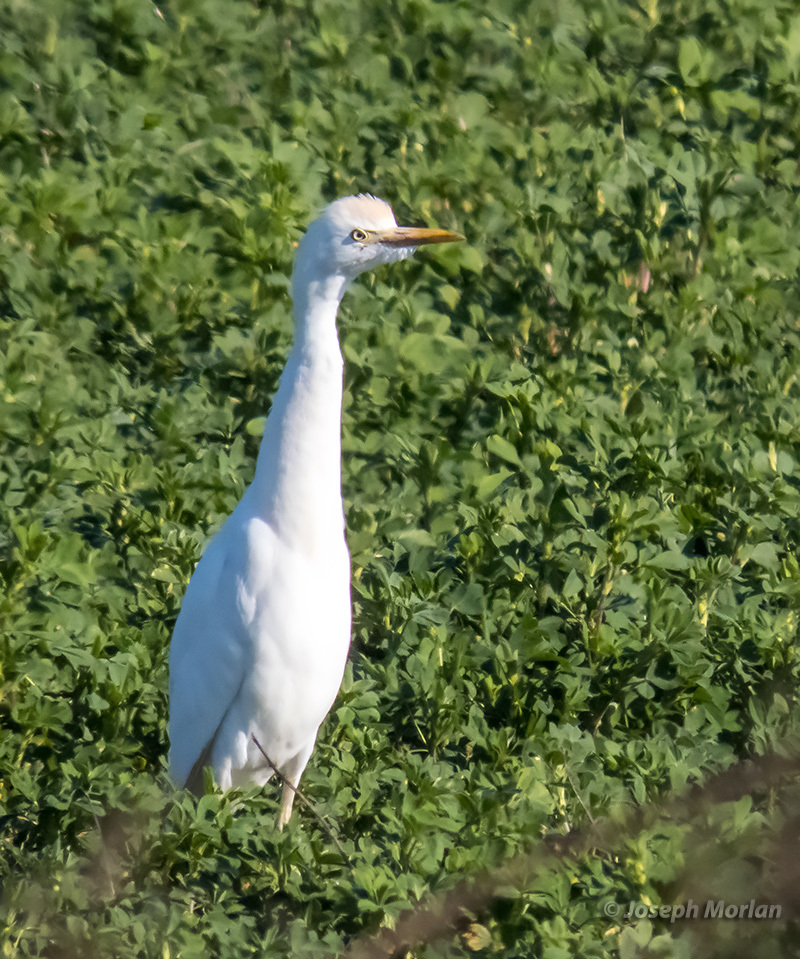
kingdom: Animalia
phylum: Chordata
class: Aves
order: Pelecaniformes
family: Ardeidae
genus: Bubulcus
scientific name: Bubulcus ibis
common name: Cattle egret
